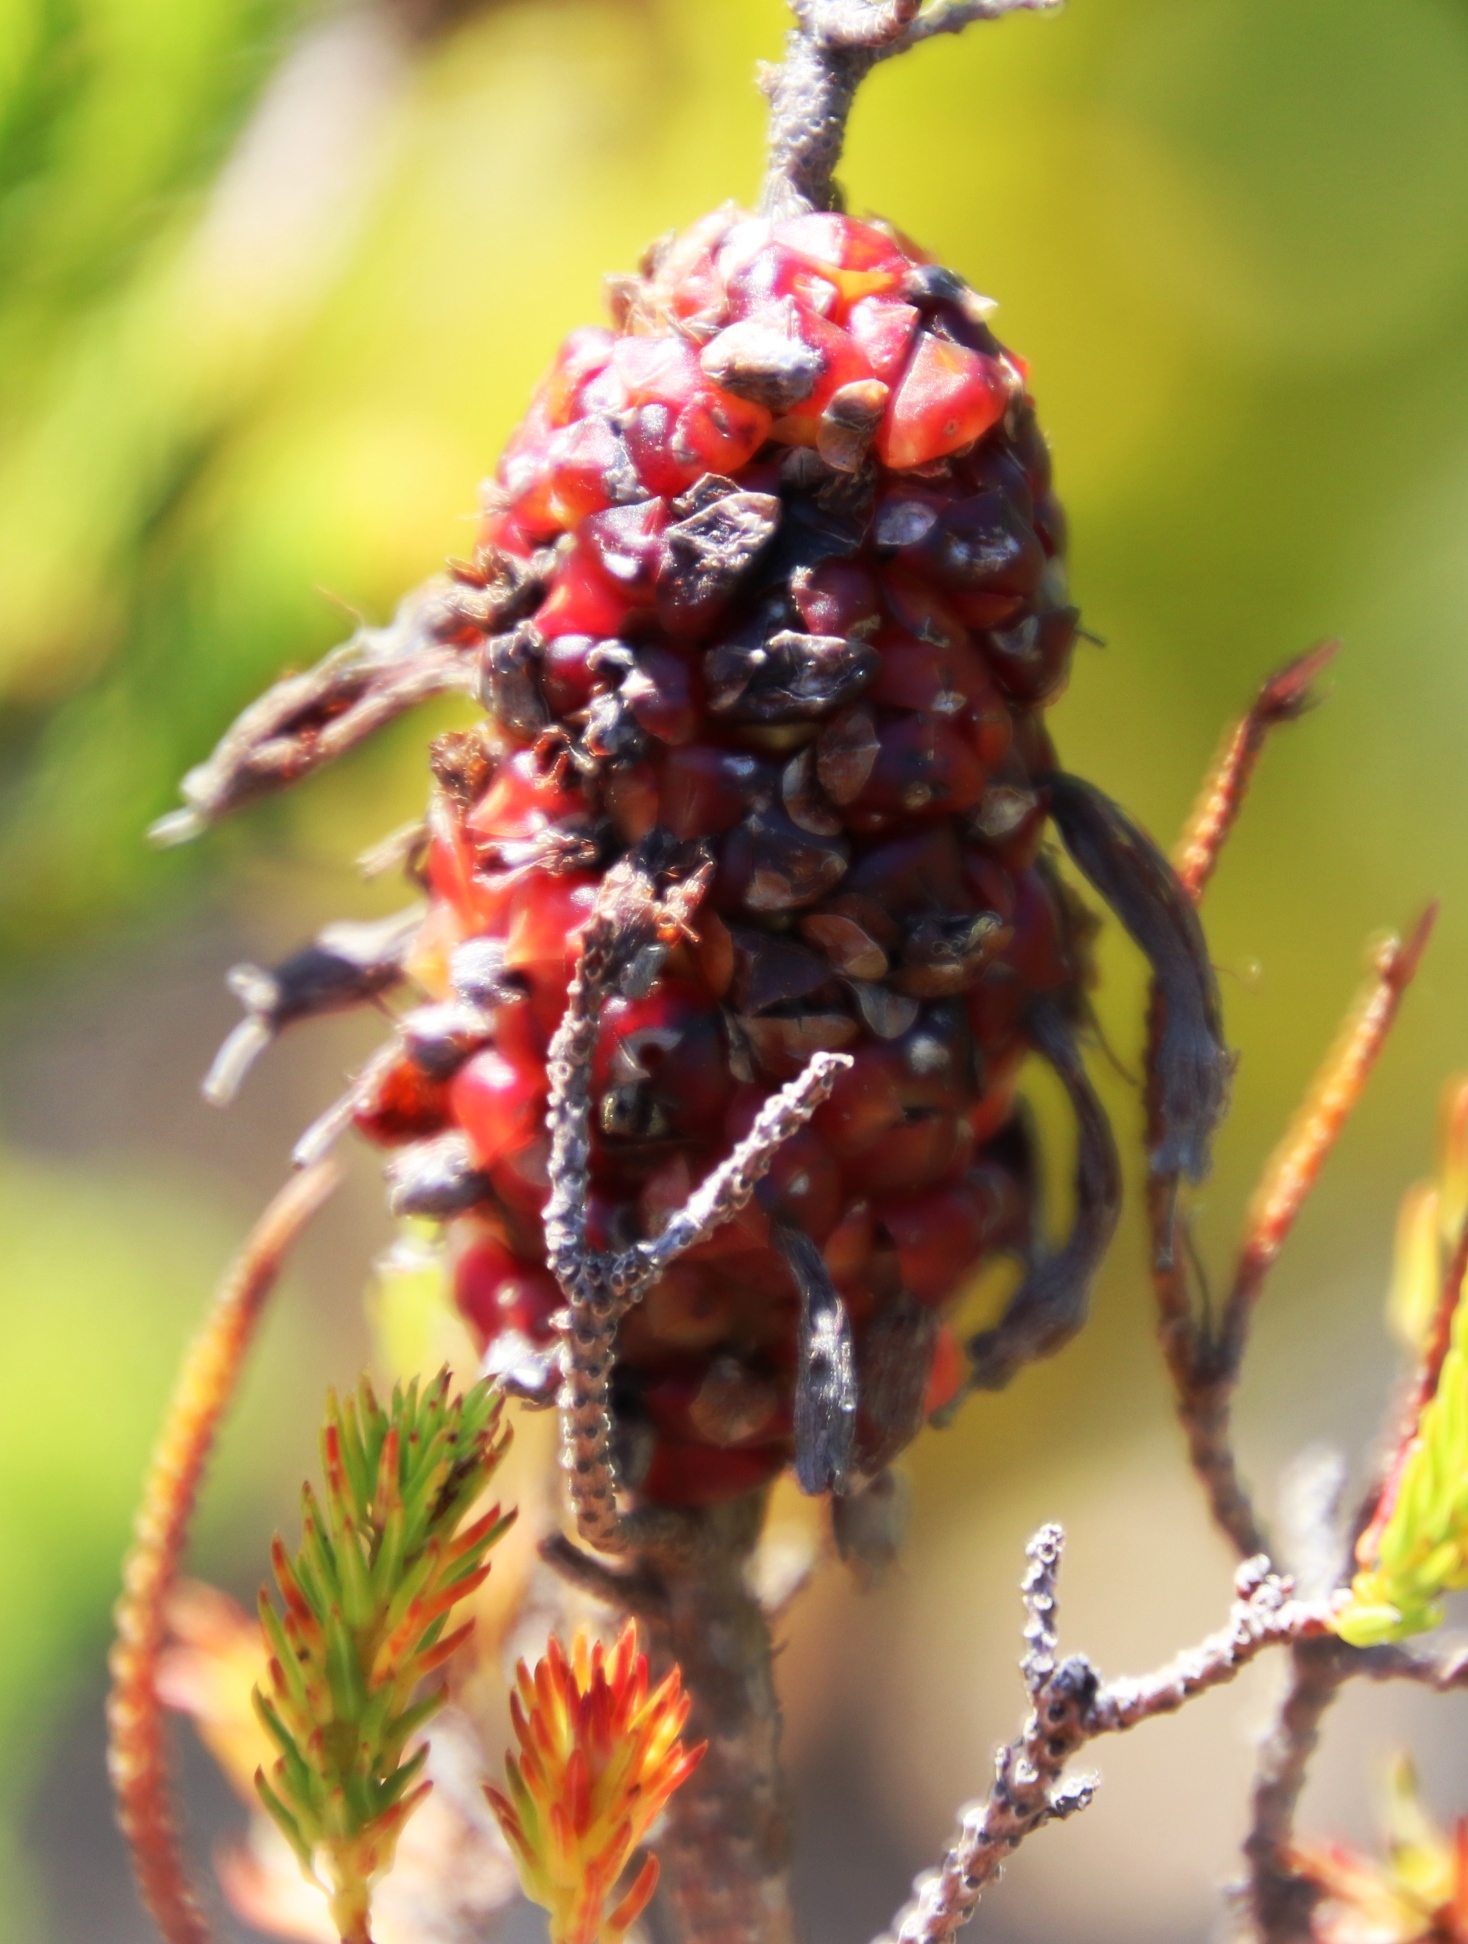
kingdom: Plantae
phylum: Tracheophyta
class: Magnoliopsida
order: Ericales
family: Ericaceae
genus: Erica
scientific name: Erica sessiliflora
